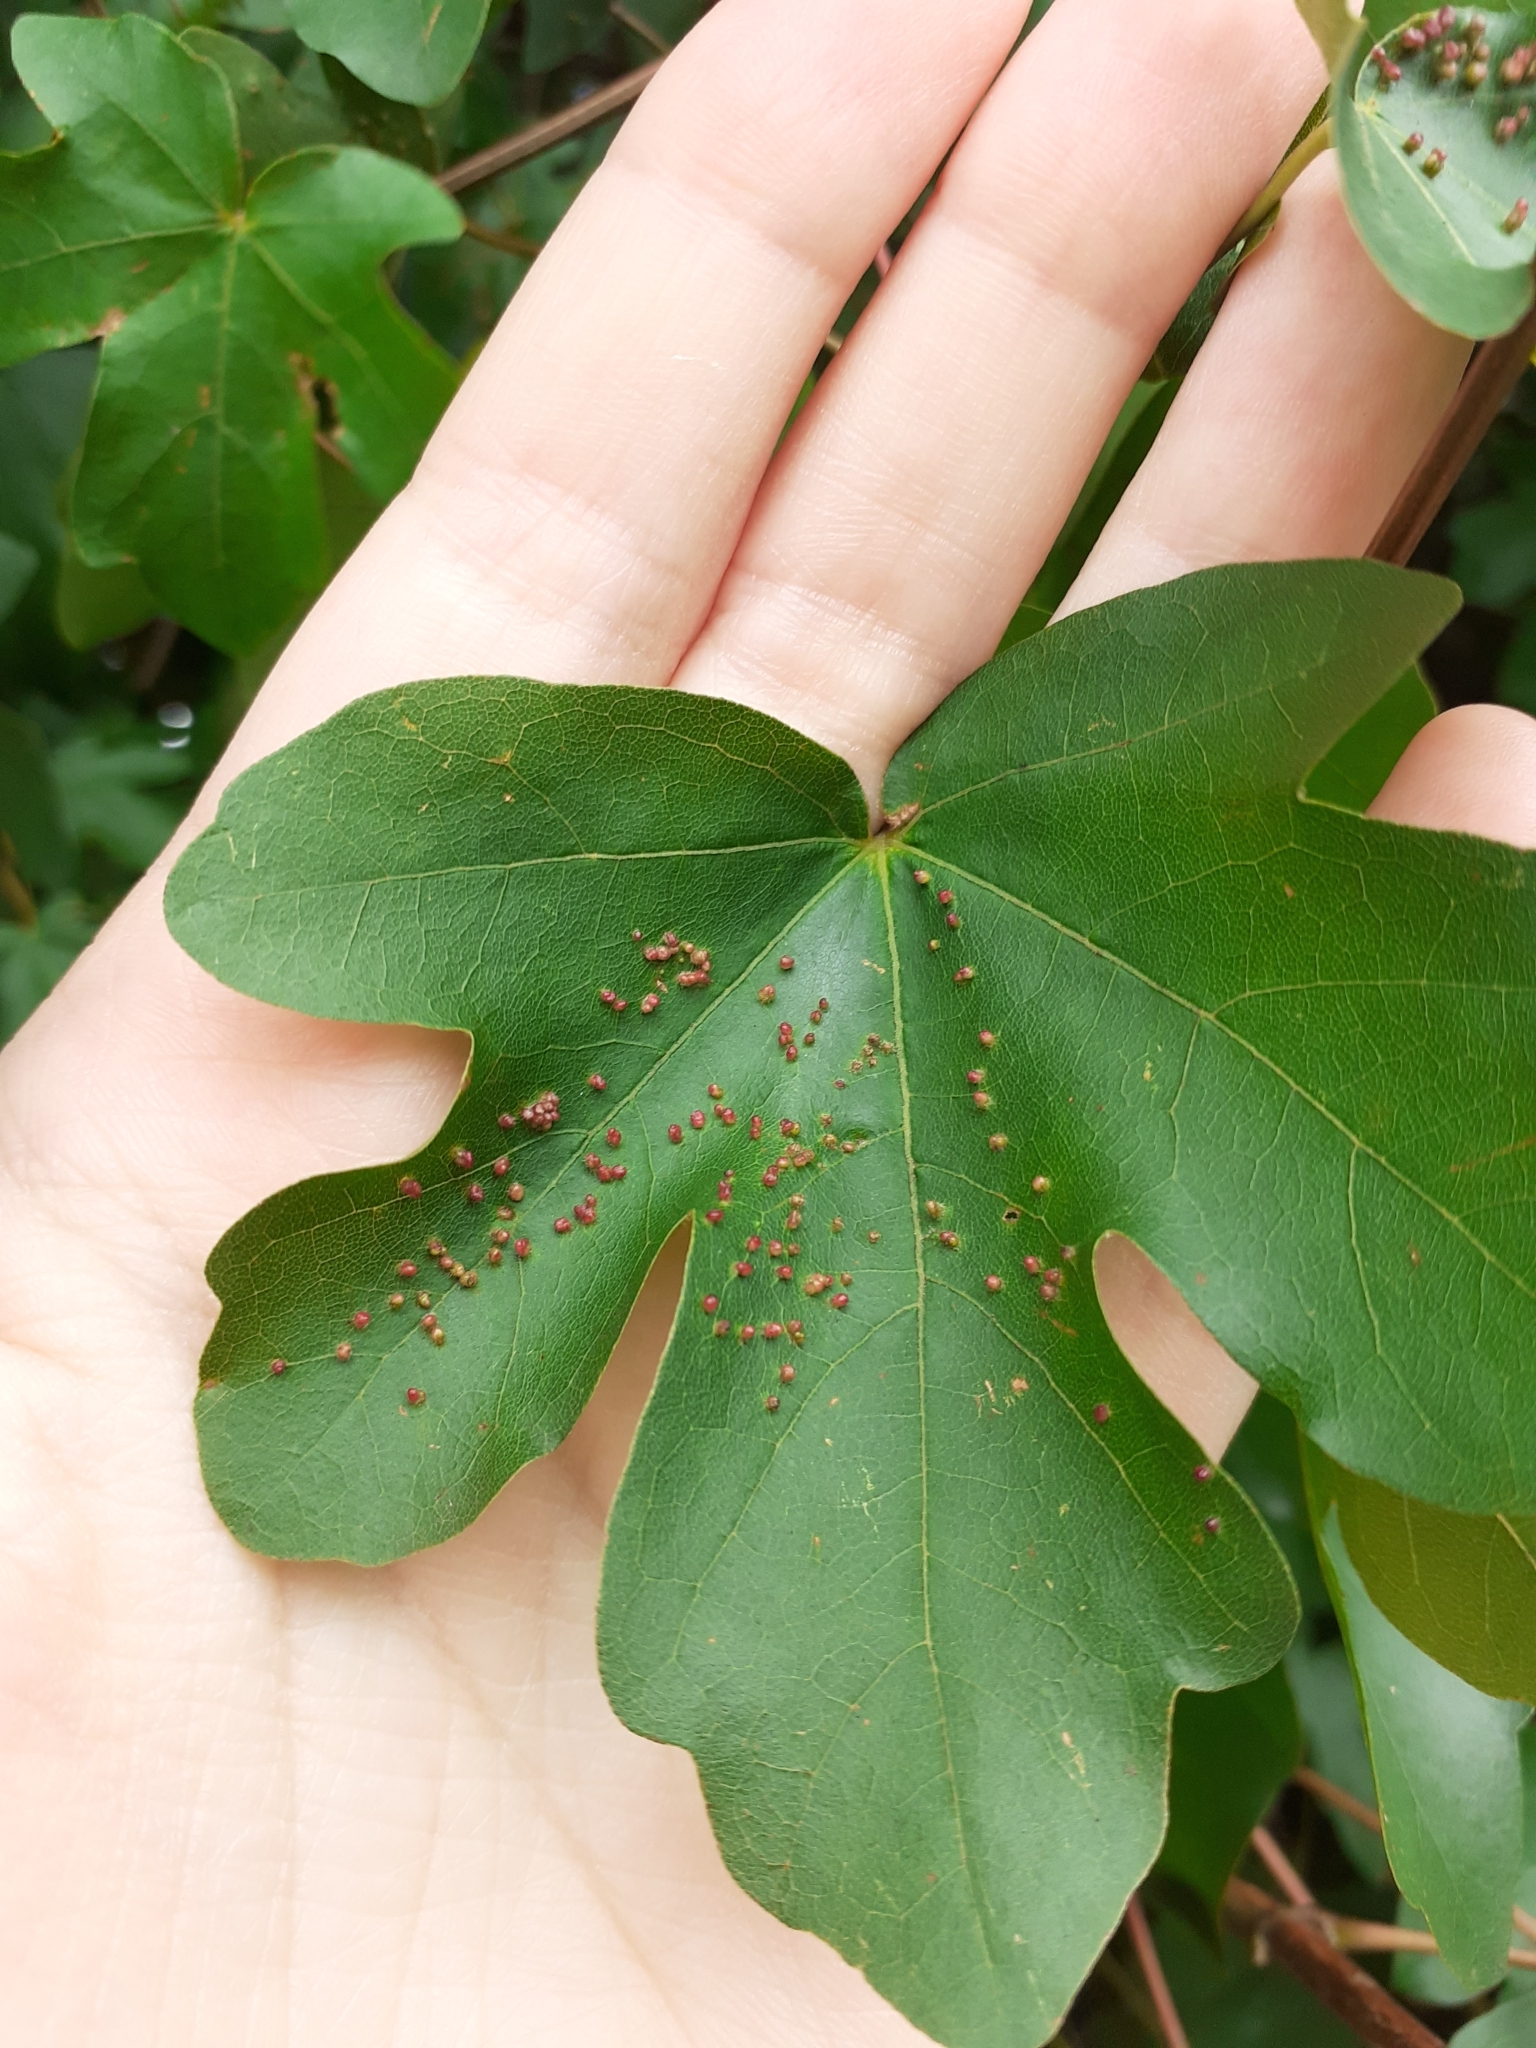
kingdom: Animalia
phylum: Arthropoda
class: Arachnida
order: Trombidiformes
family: Eriophyidae
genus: Aceria
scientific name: Aceria myriadeum
